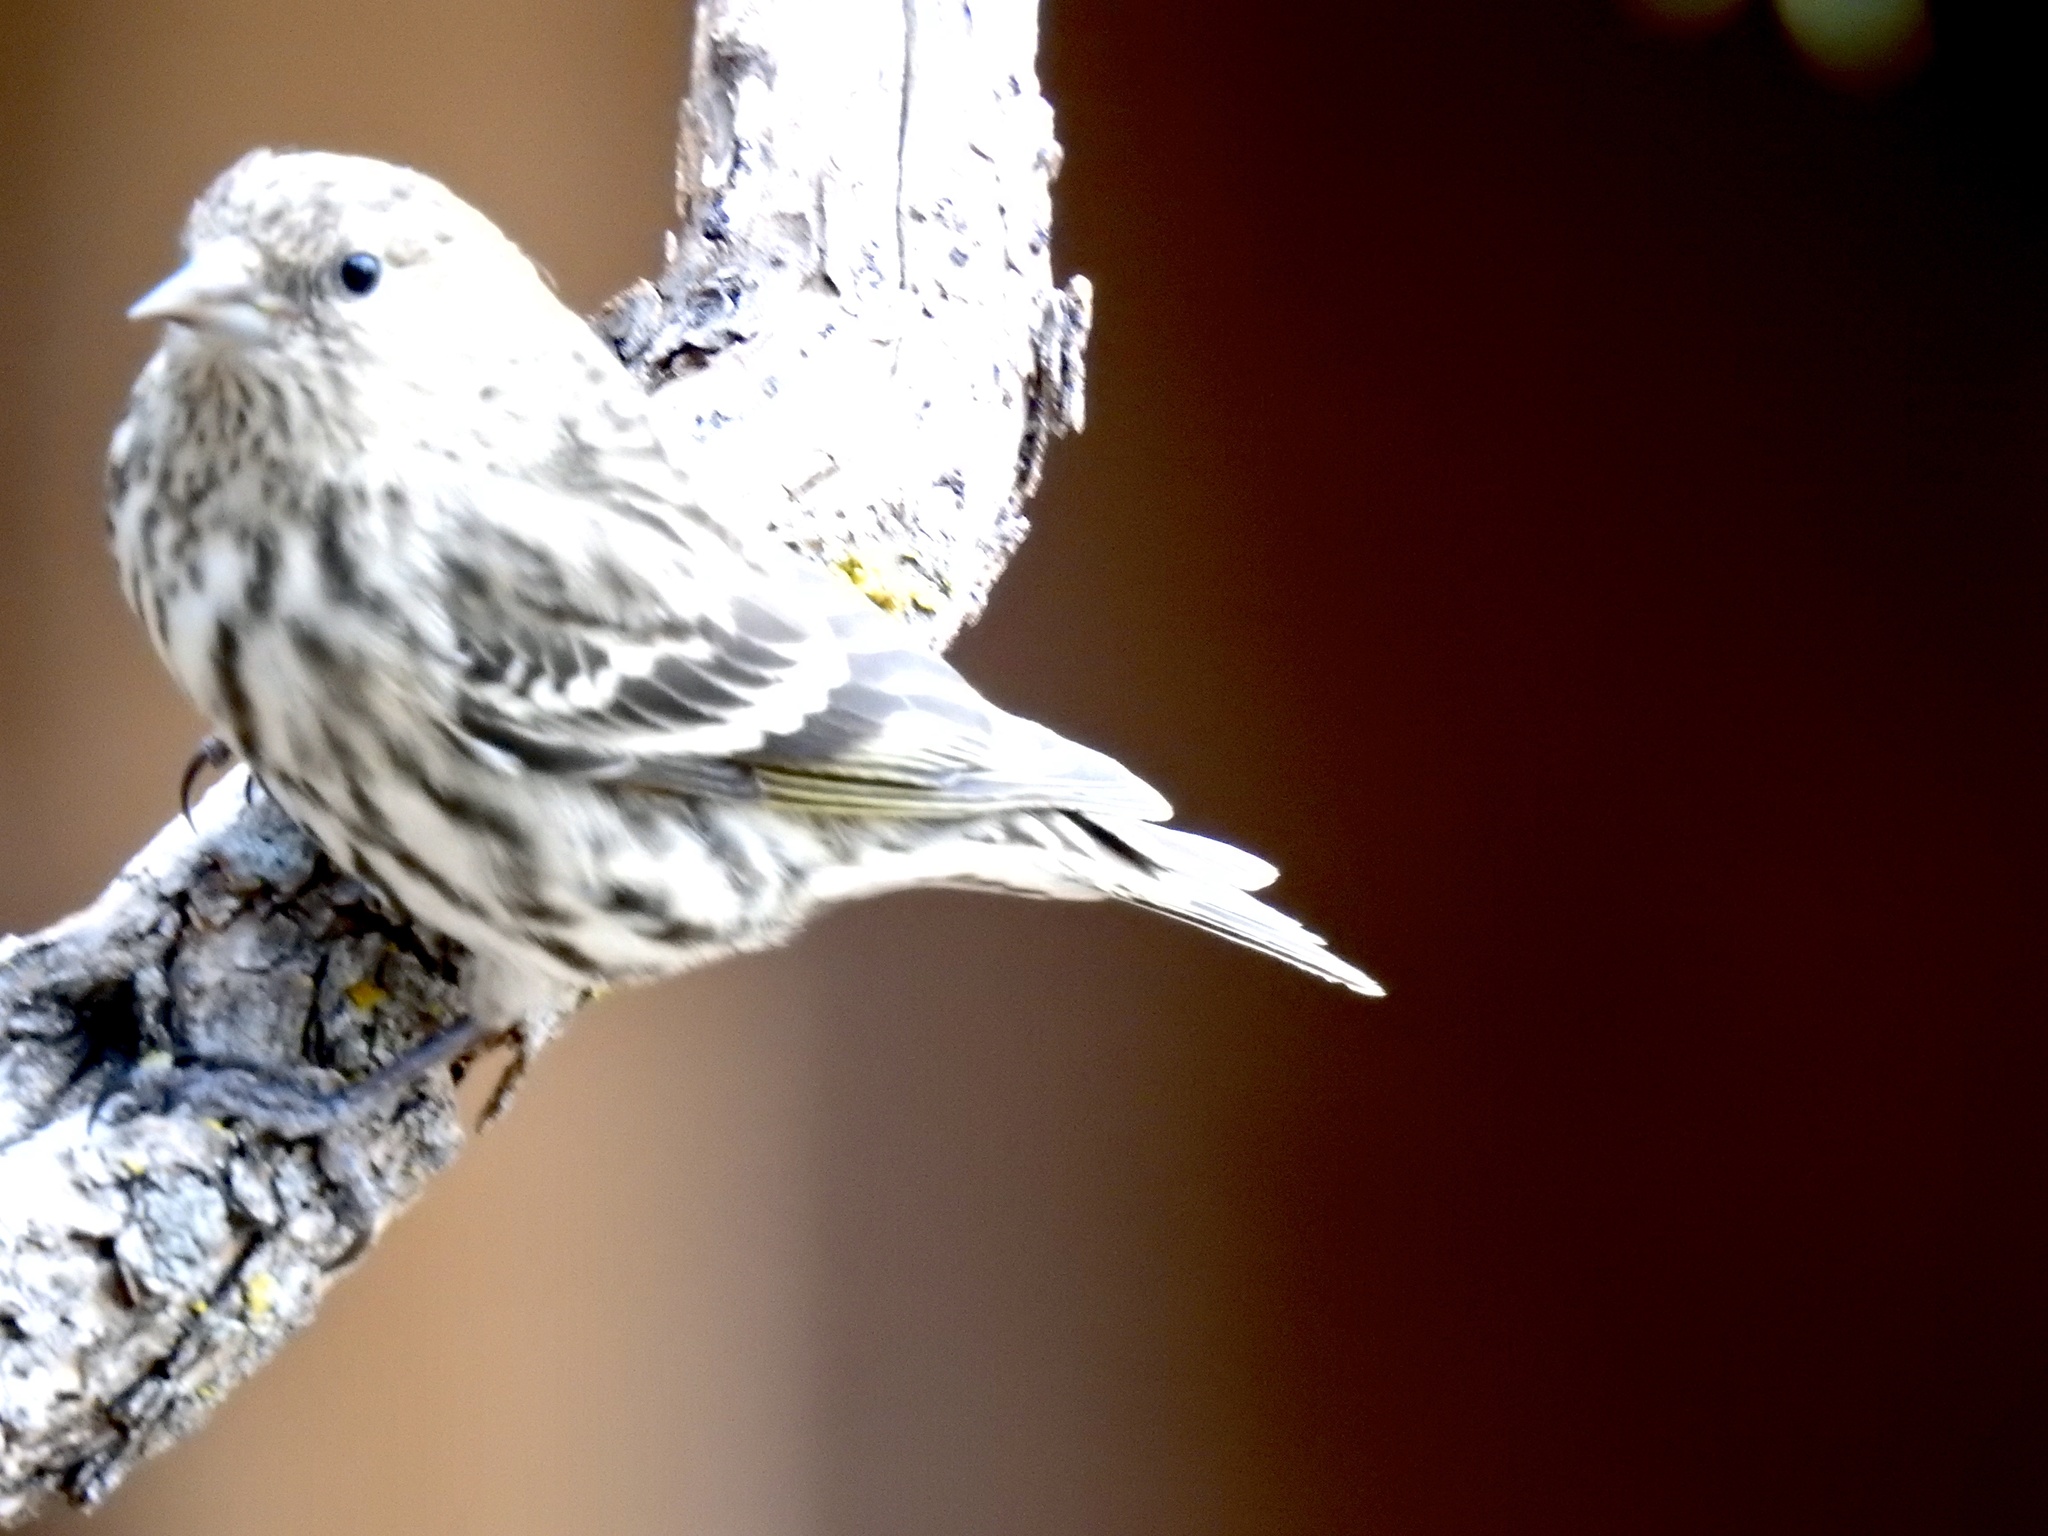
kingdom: Animalia
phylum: Chordata
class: Aves
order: Passeriformes
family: Fringillidae
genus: Spinus
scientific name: Spinus pinus
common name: Pine siskin
